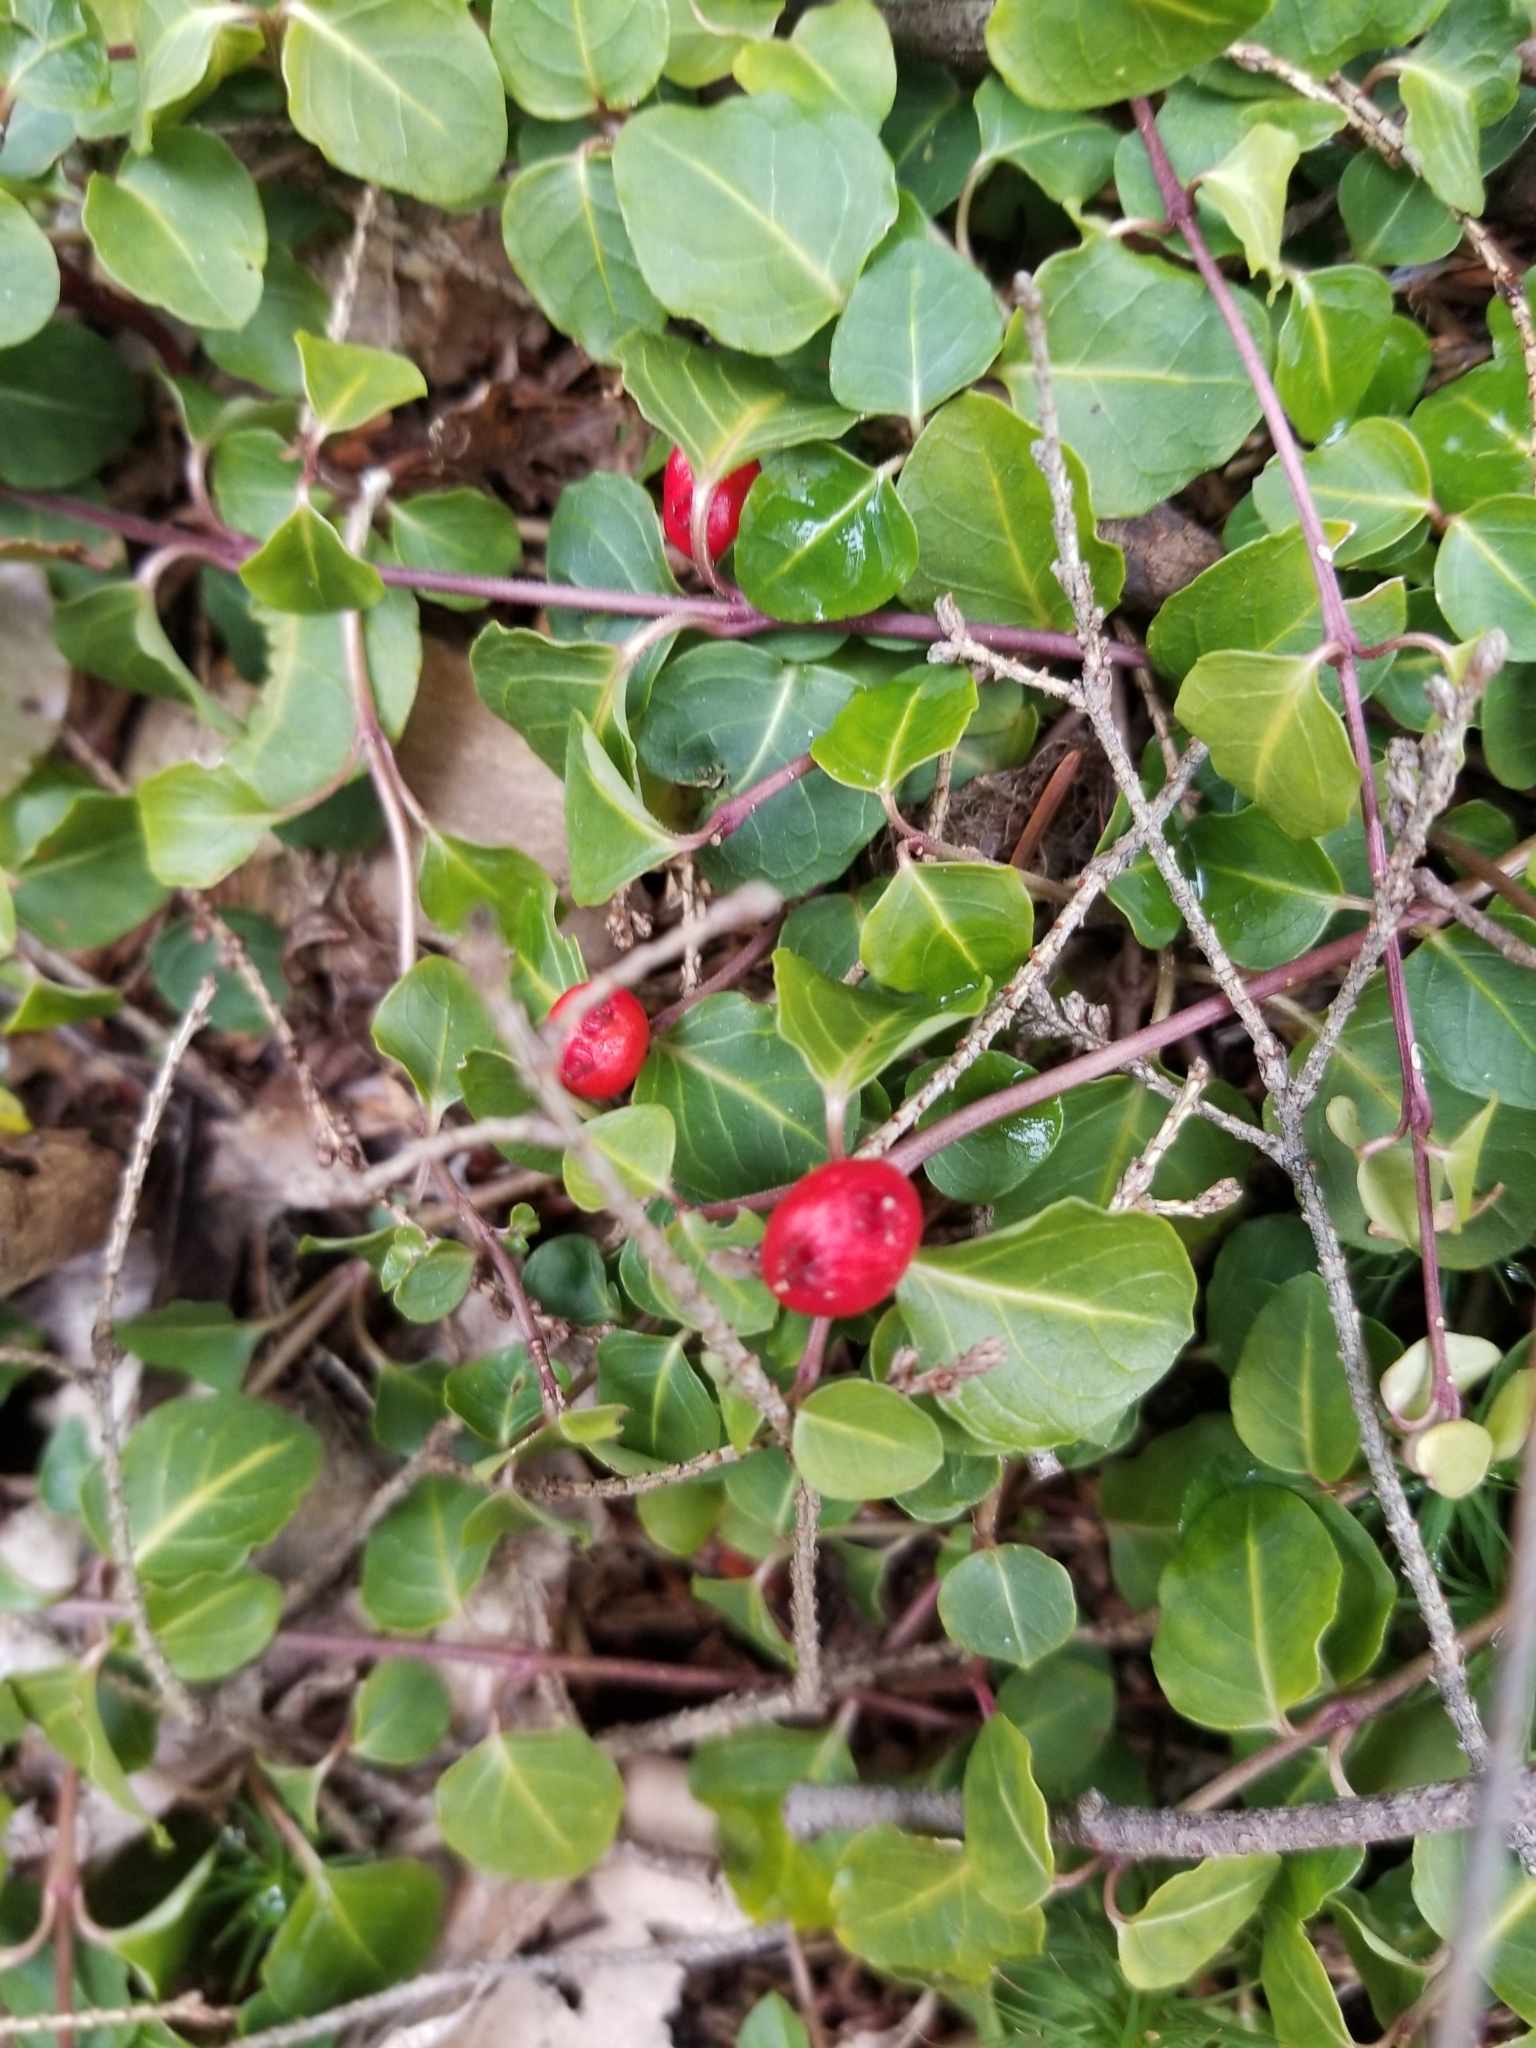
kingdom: Plantae
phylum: Tracheophyta
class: Magnoliopsida
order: Gentianales
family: Rubiaceae
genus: Mitchella
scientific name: Mitchella repens
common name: Partridge-berry
